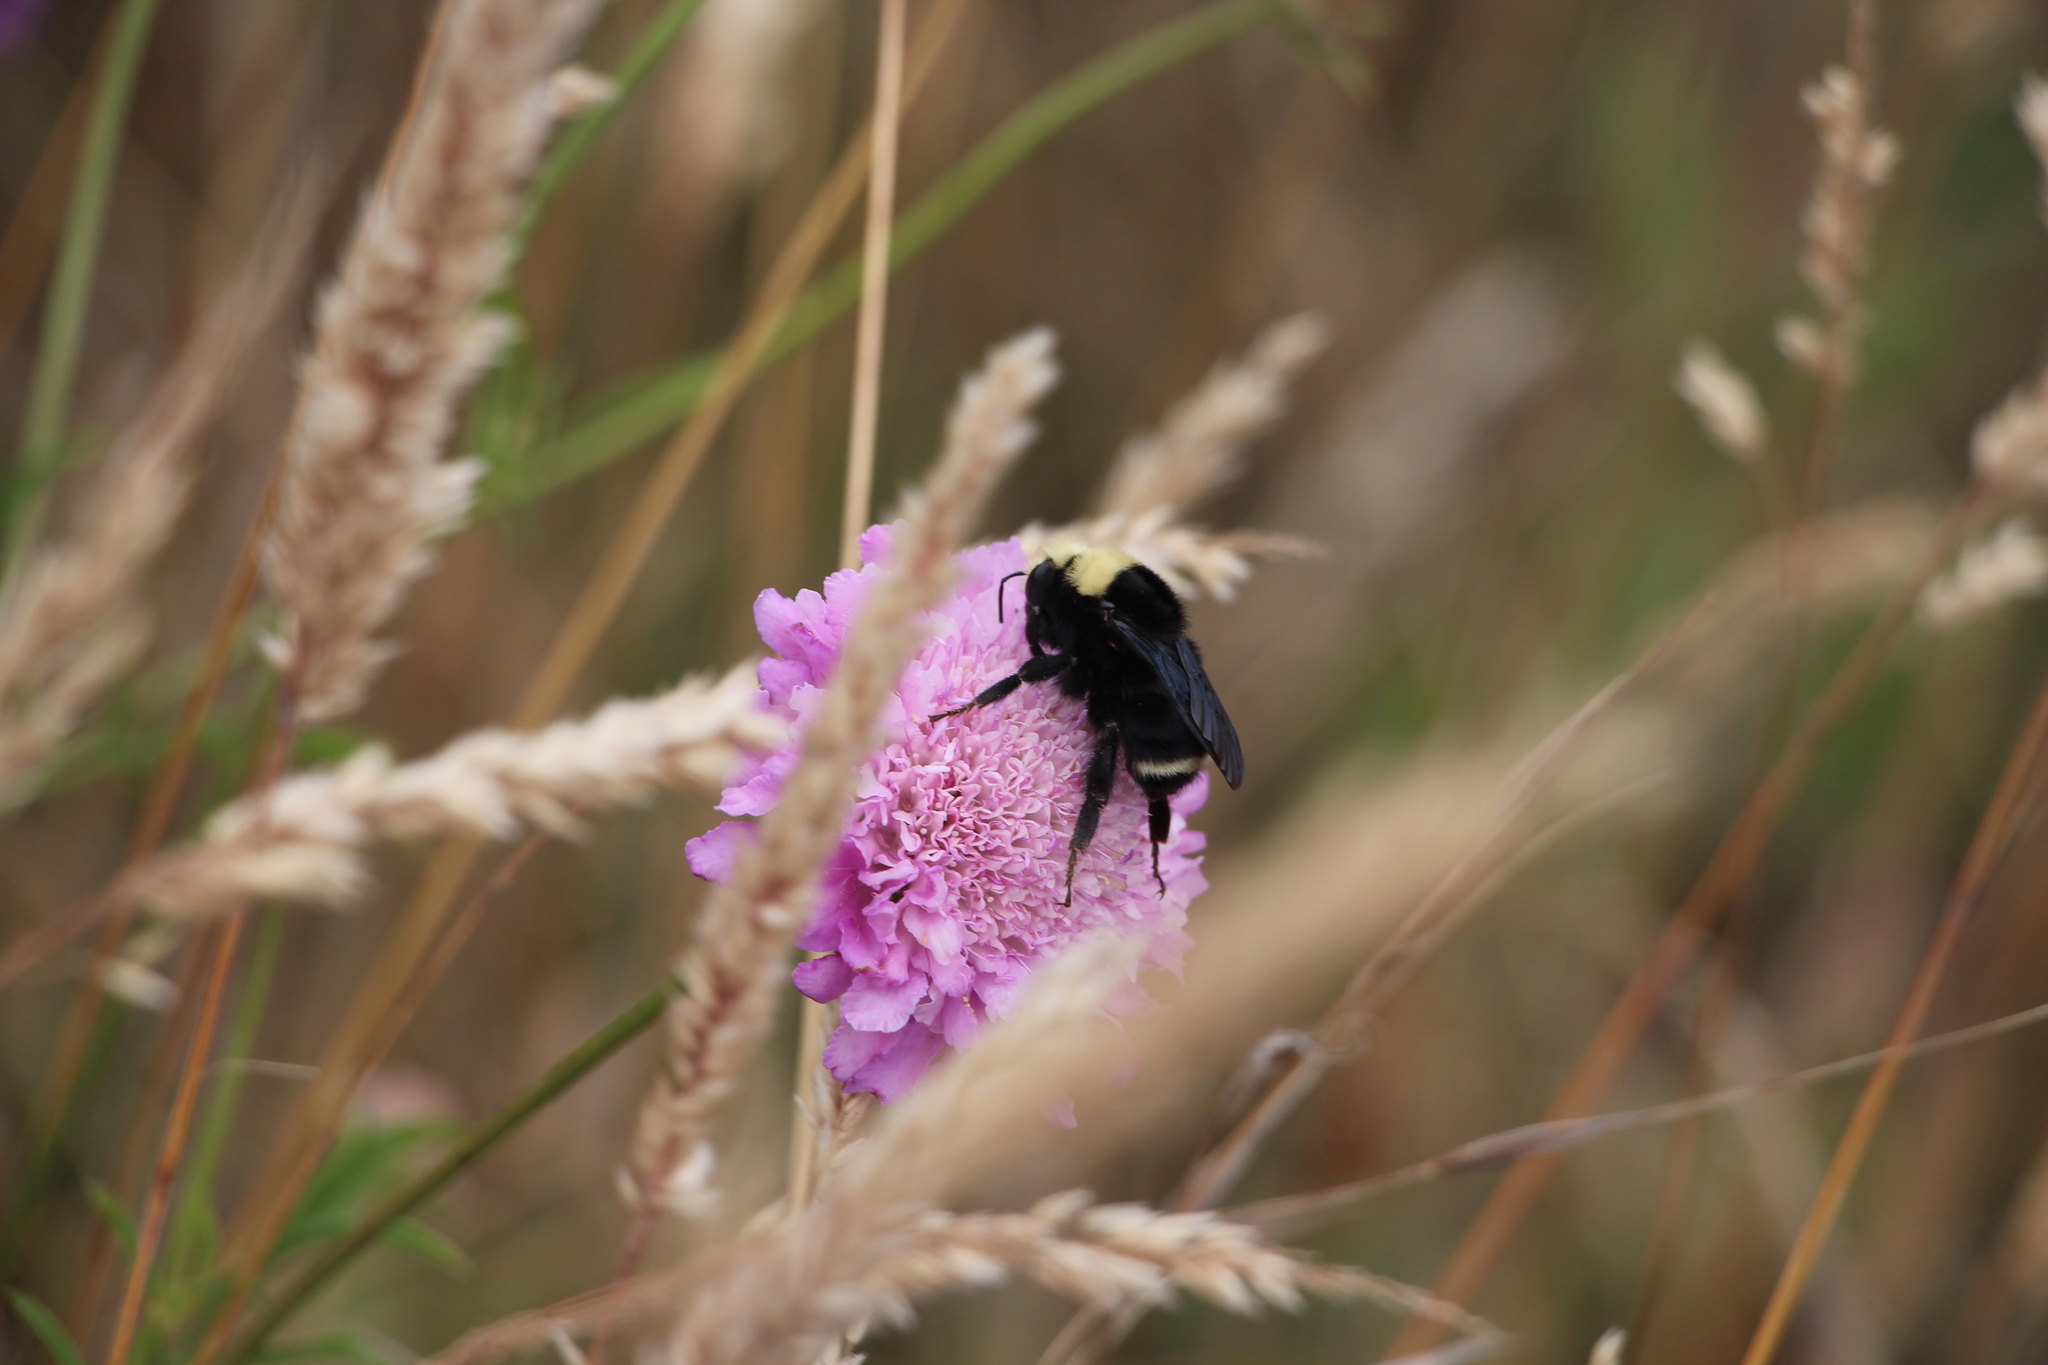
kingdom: Plantae
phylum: Tracheophyta
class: Magnoliopsida
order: Dipsacales
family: Caprifoliaceae
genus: Sixalix
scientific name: Sixalix atropurpurea
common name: Sweet scabious
